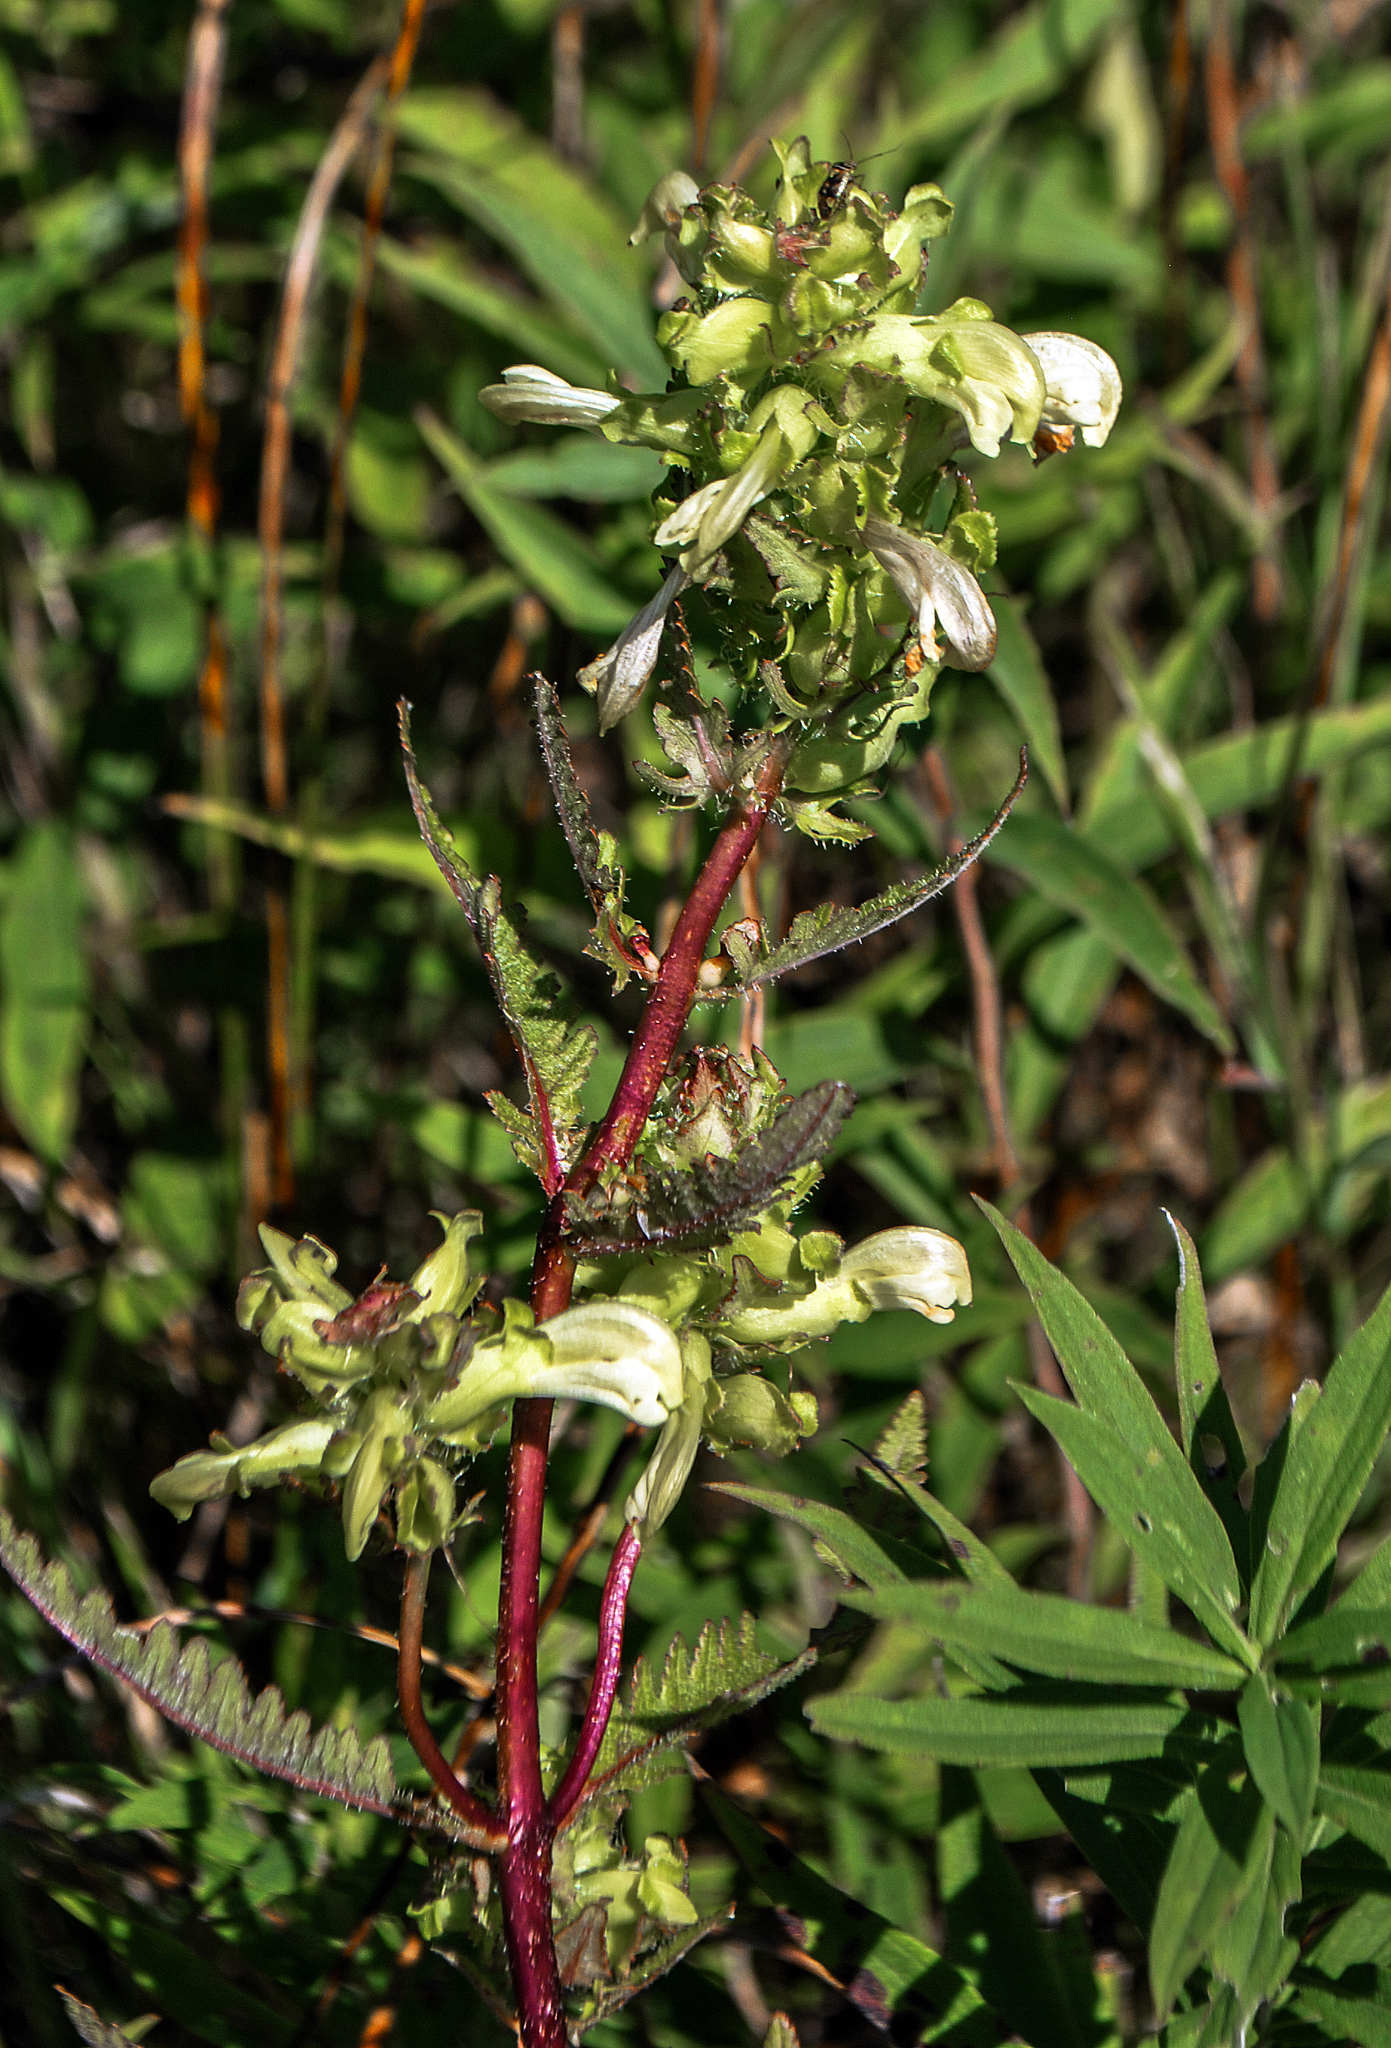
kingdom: Plantae
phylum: Tracheophyta
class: Magnoliopsida
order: Lamiales
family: Orobanchaceae
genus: Pedicularis
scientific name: Pedicularis lanceolata
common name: Swamp lousewort
